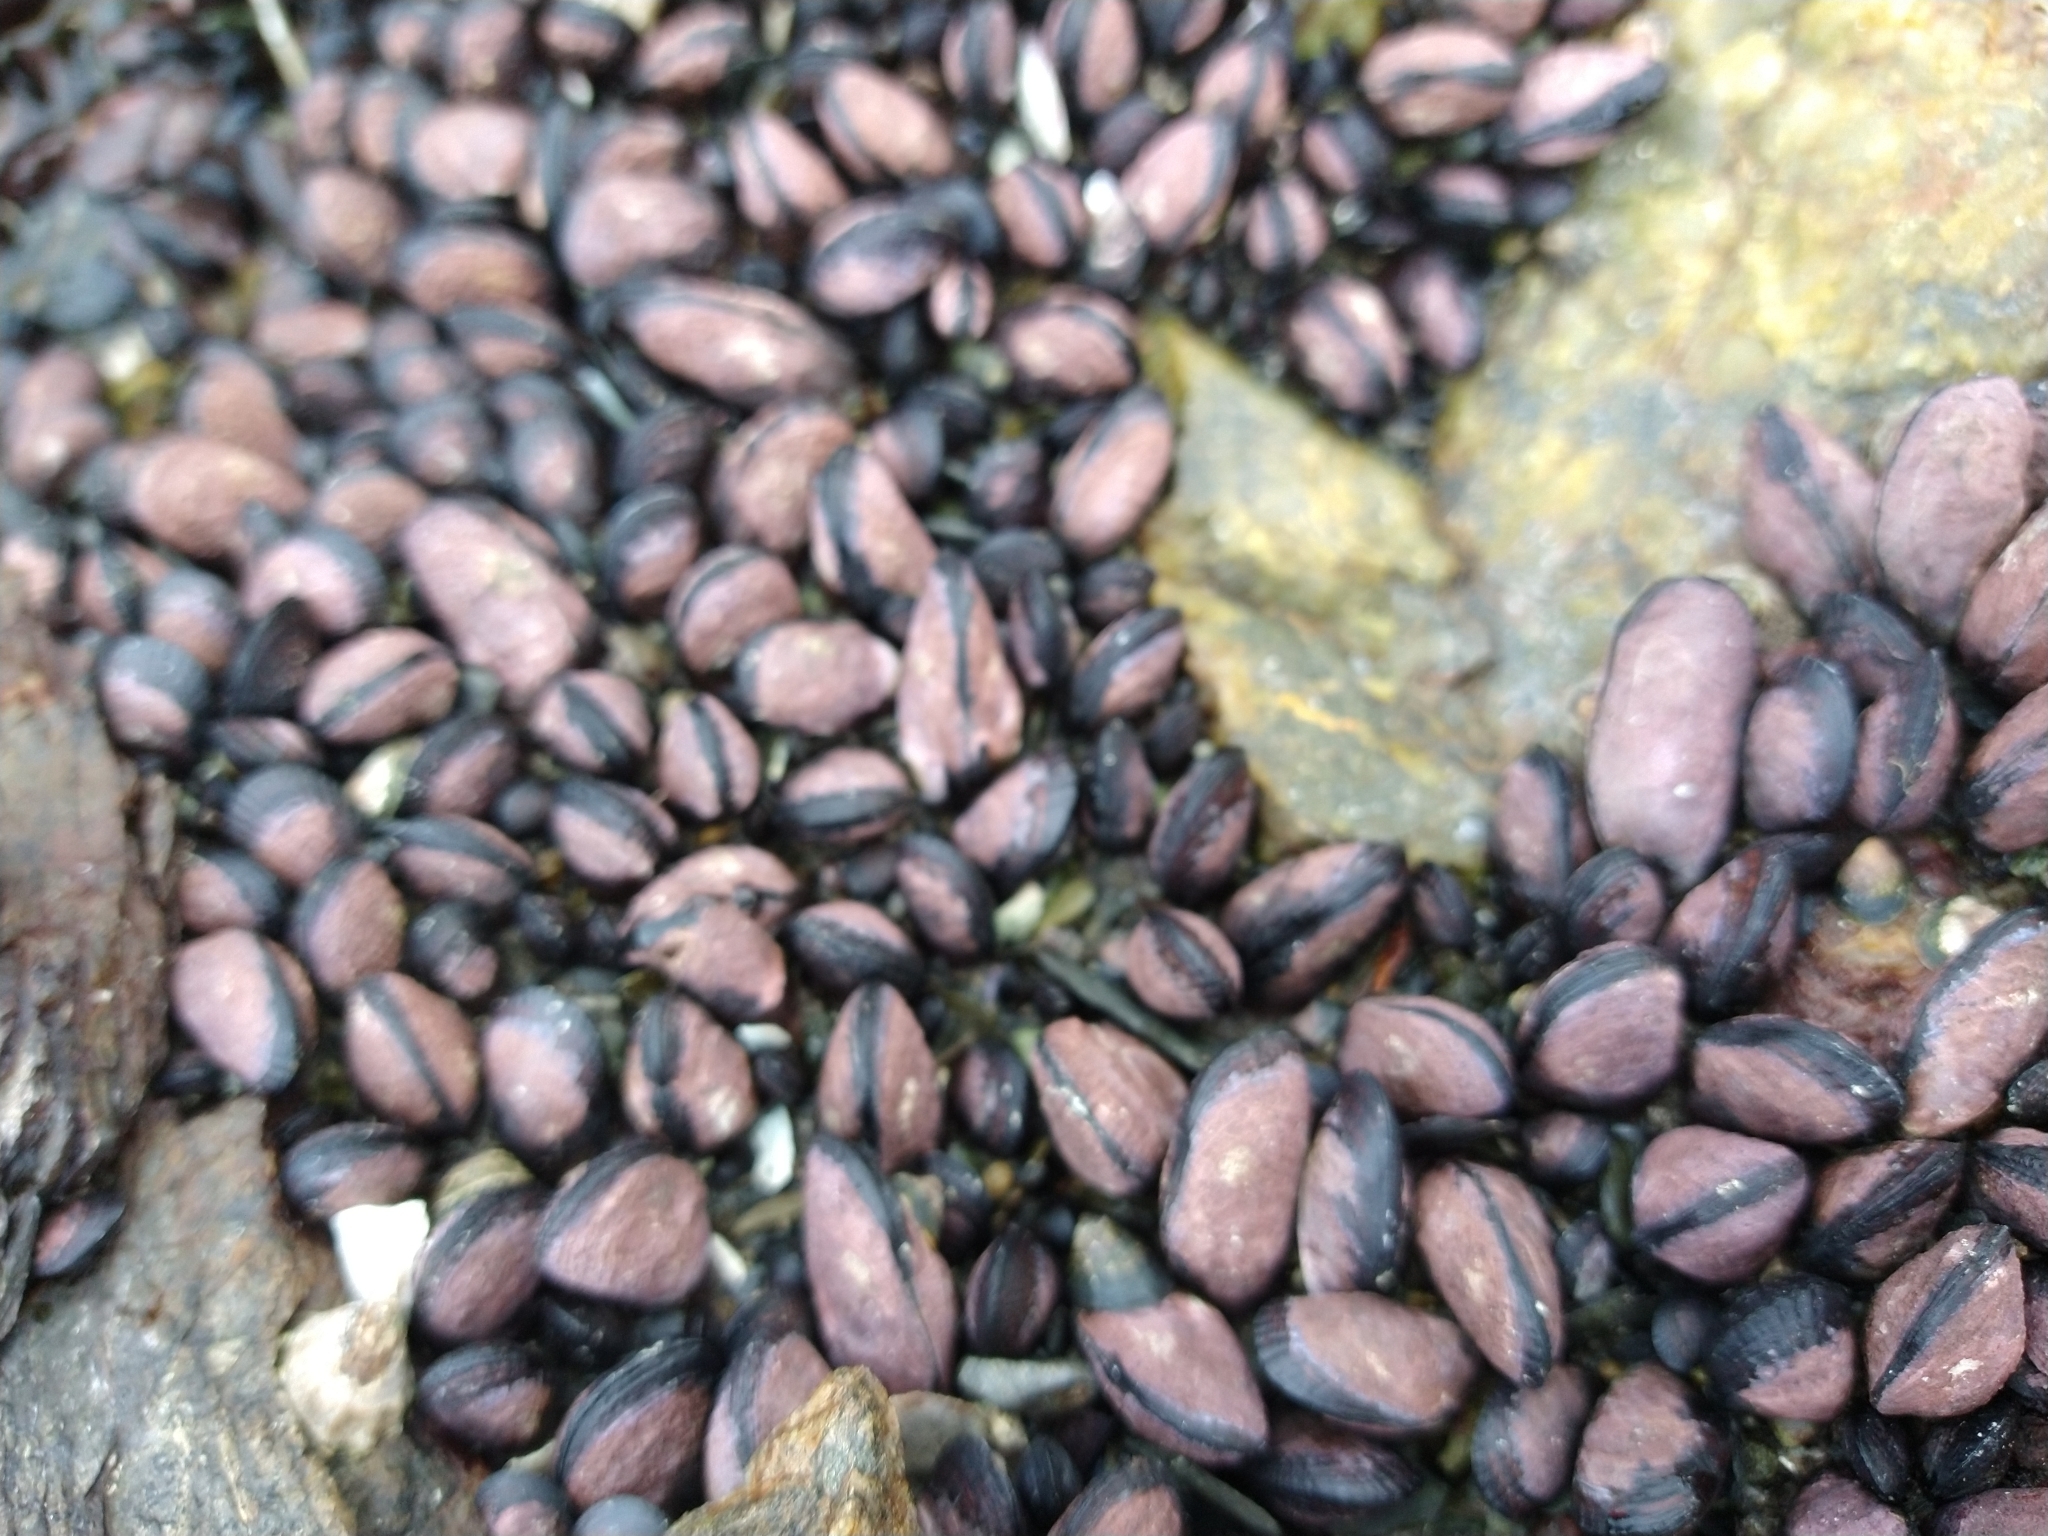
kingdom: Animalia
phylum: Mollusca
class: Bivalvia
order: Mytilida
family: Mytilidae
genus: Perumytilus
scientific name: Perumytilus purpuratus
